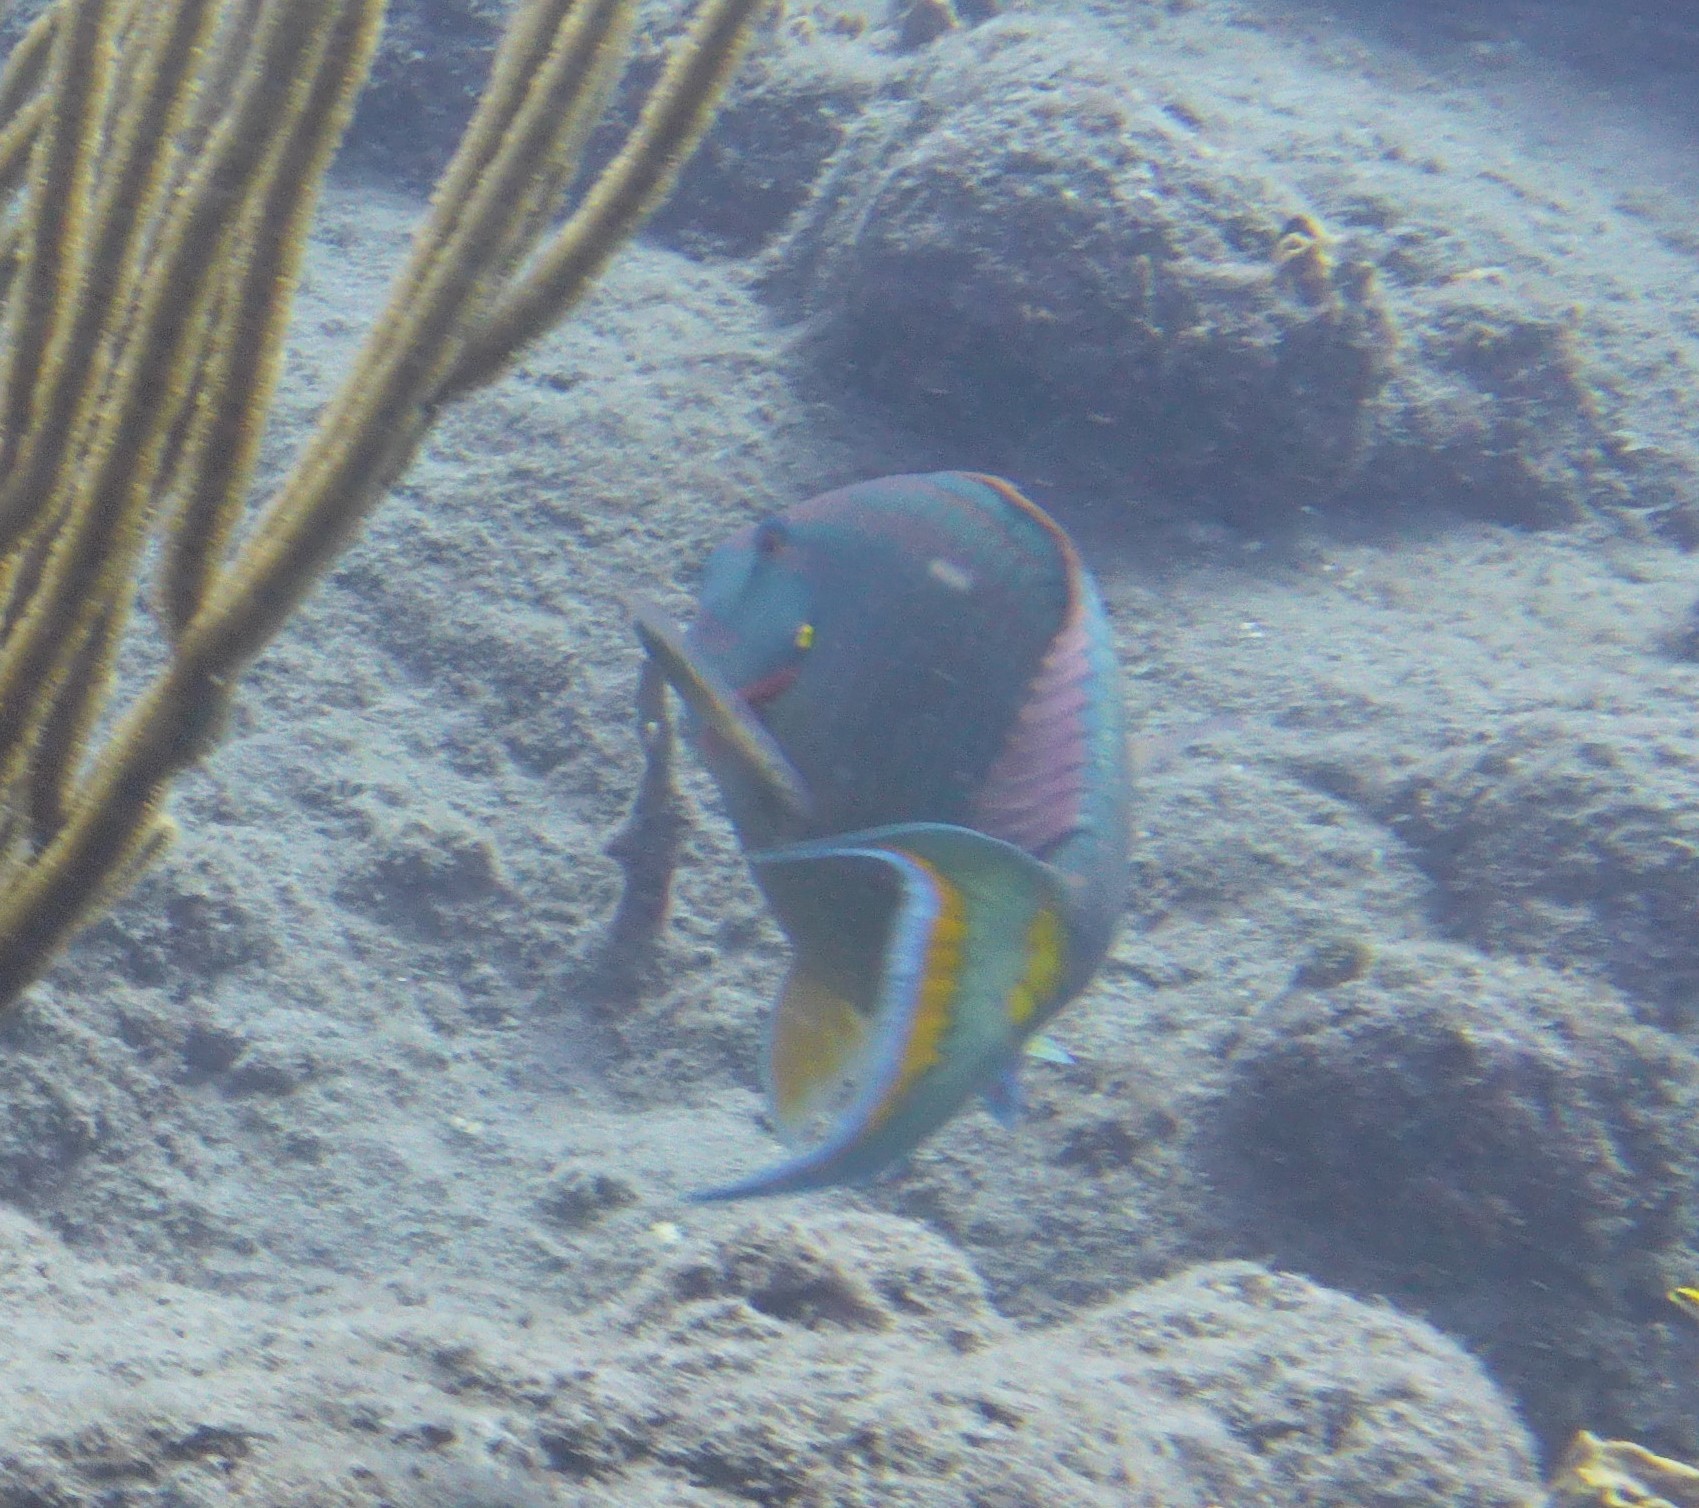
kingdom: Animalia
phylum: Chordata
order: Perciformes
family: Scaridae
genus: Sparisoma
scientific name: Sparisoma viride
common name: Stoplight parrotfish
